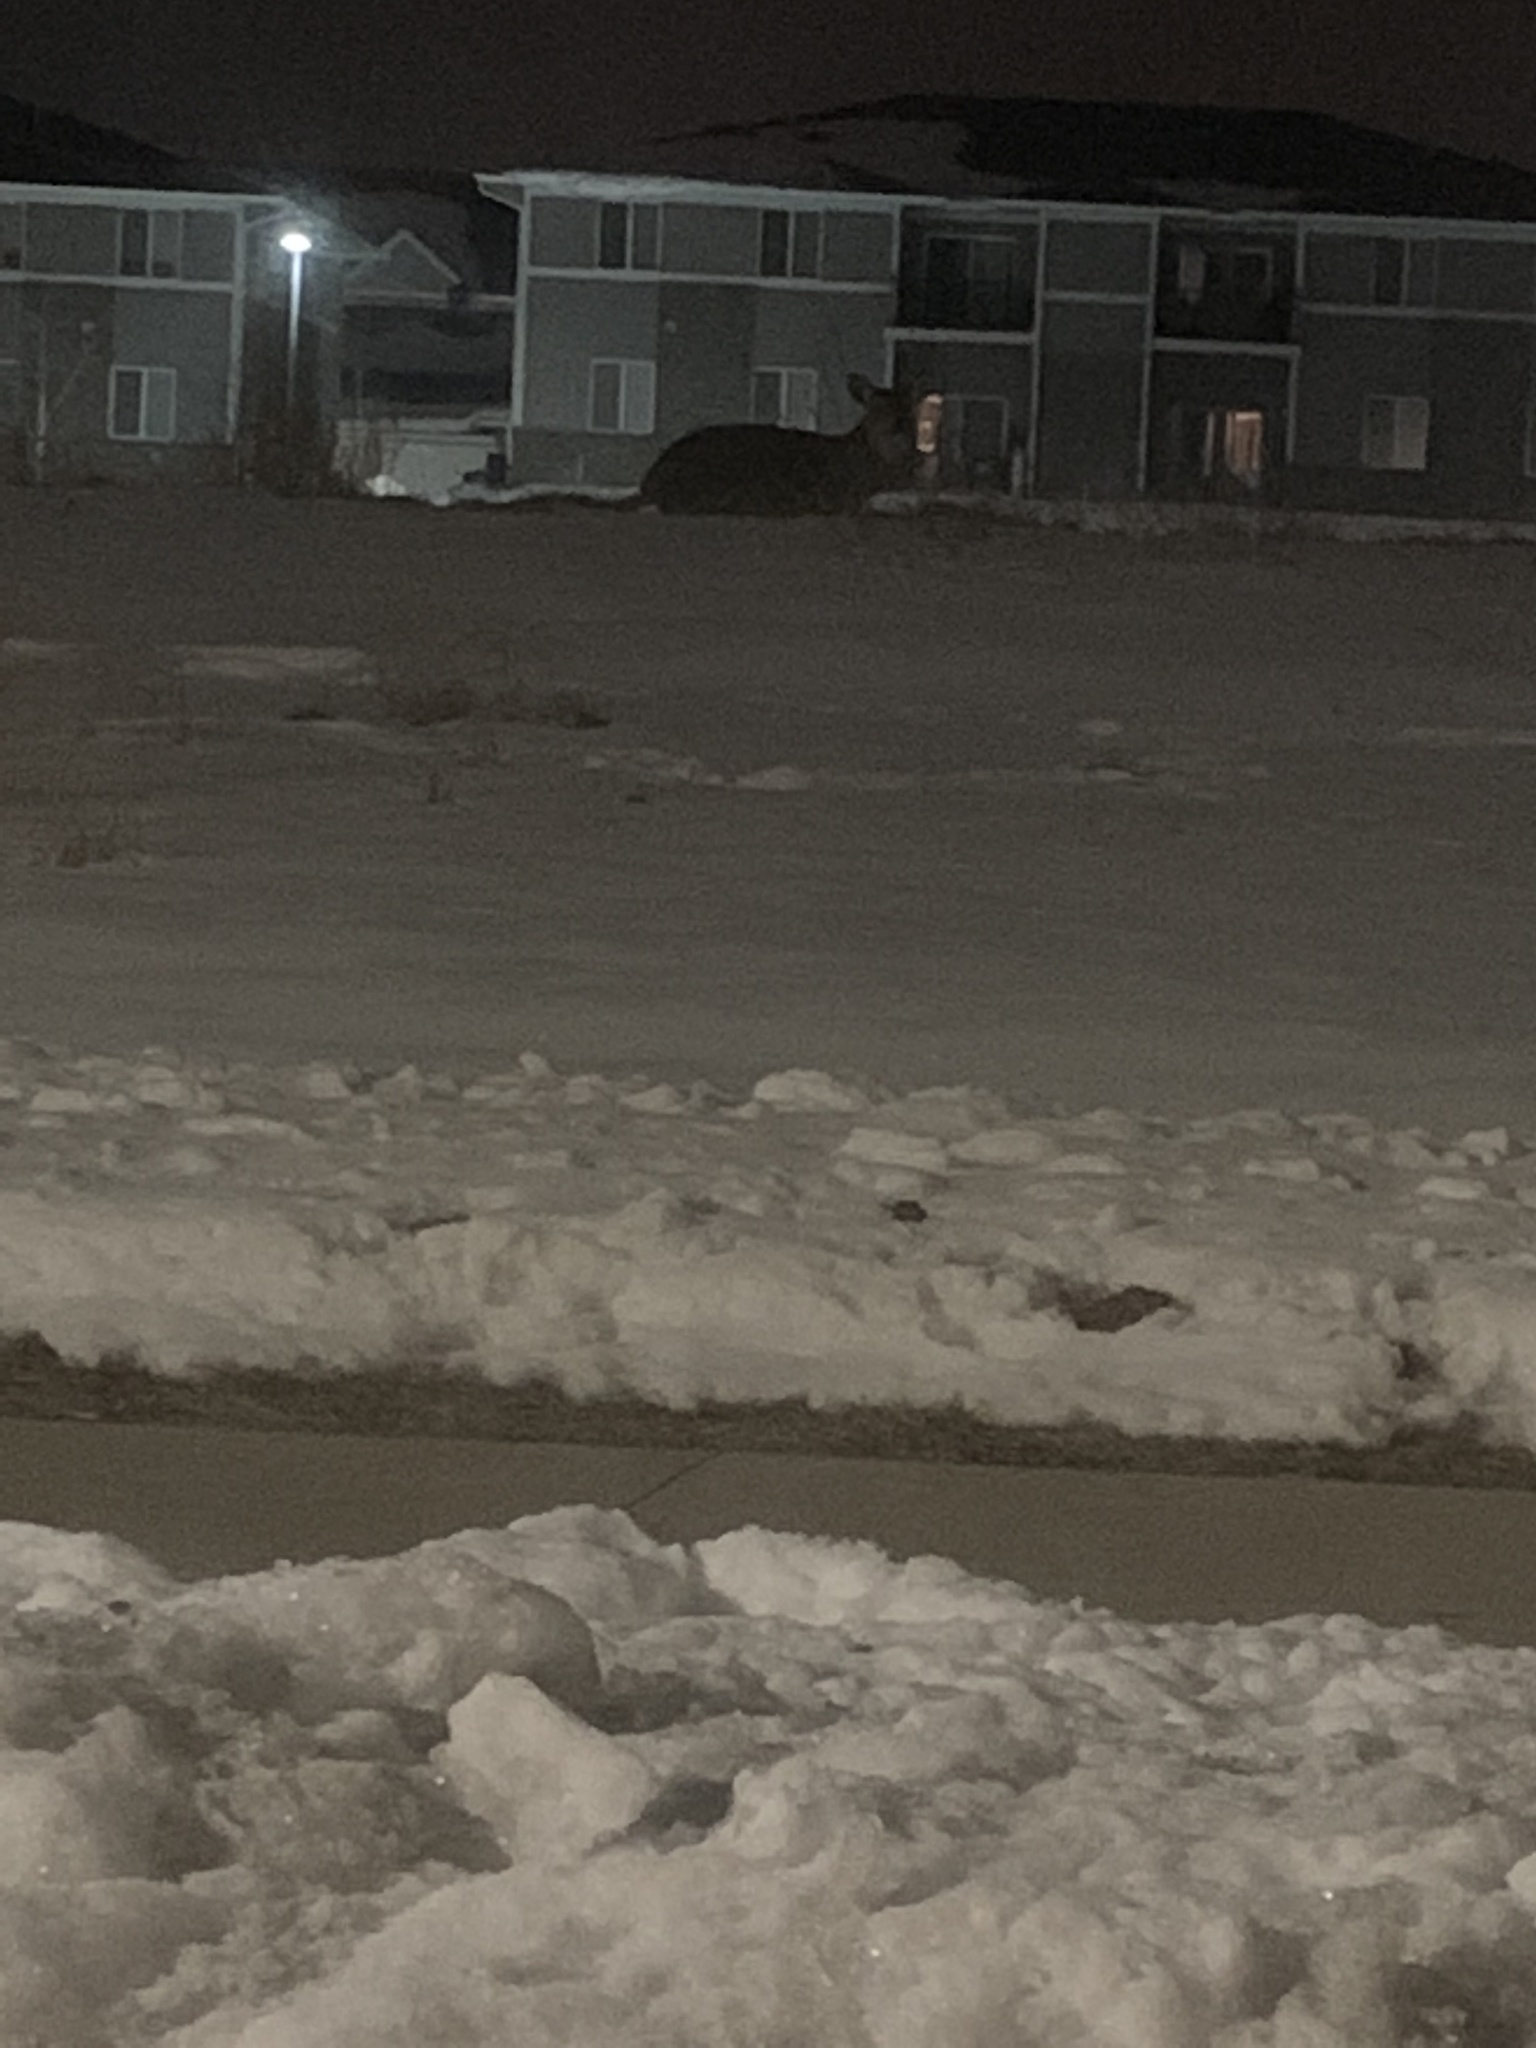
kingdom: Animalia
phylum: Chordata
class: Mammalia
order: Artiodactyla
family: Cervidae
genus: Odocoileus
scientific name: Odocoileus virginianus
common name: White-tailed deer
